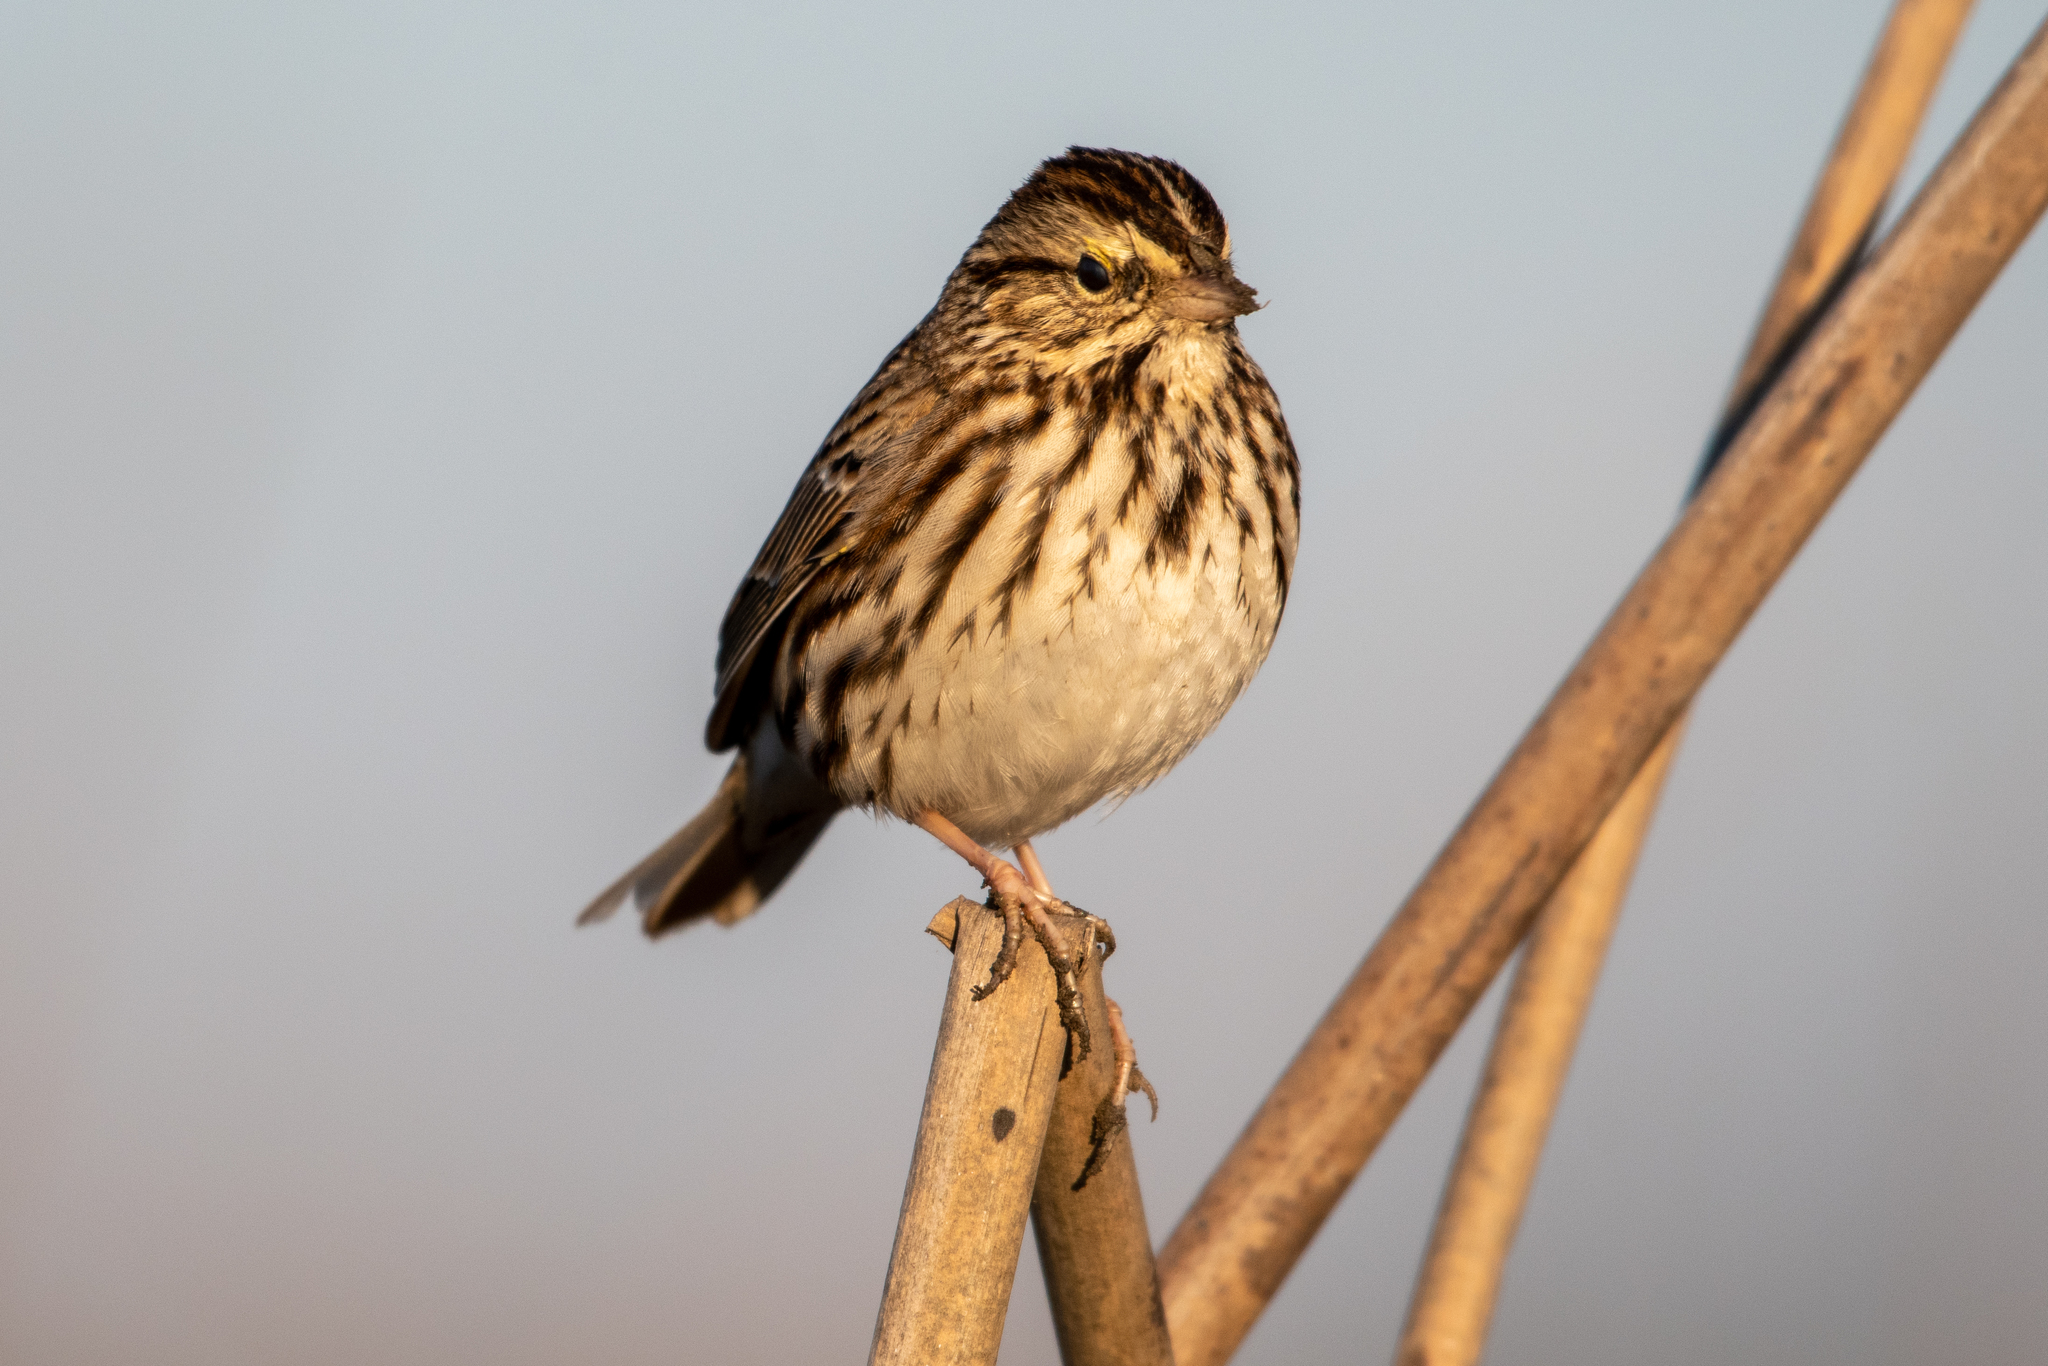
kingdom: Animalia
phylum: Chordata
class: Aves
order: Passeriformes
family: Passerellidae
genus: Passerculus
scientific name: Passerculus sandwichensis
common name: Savannah sparrow
